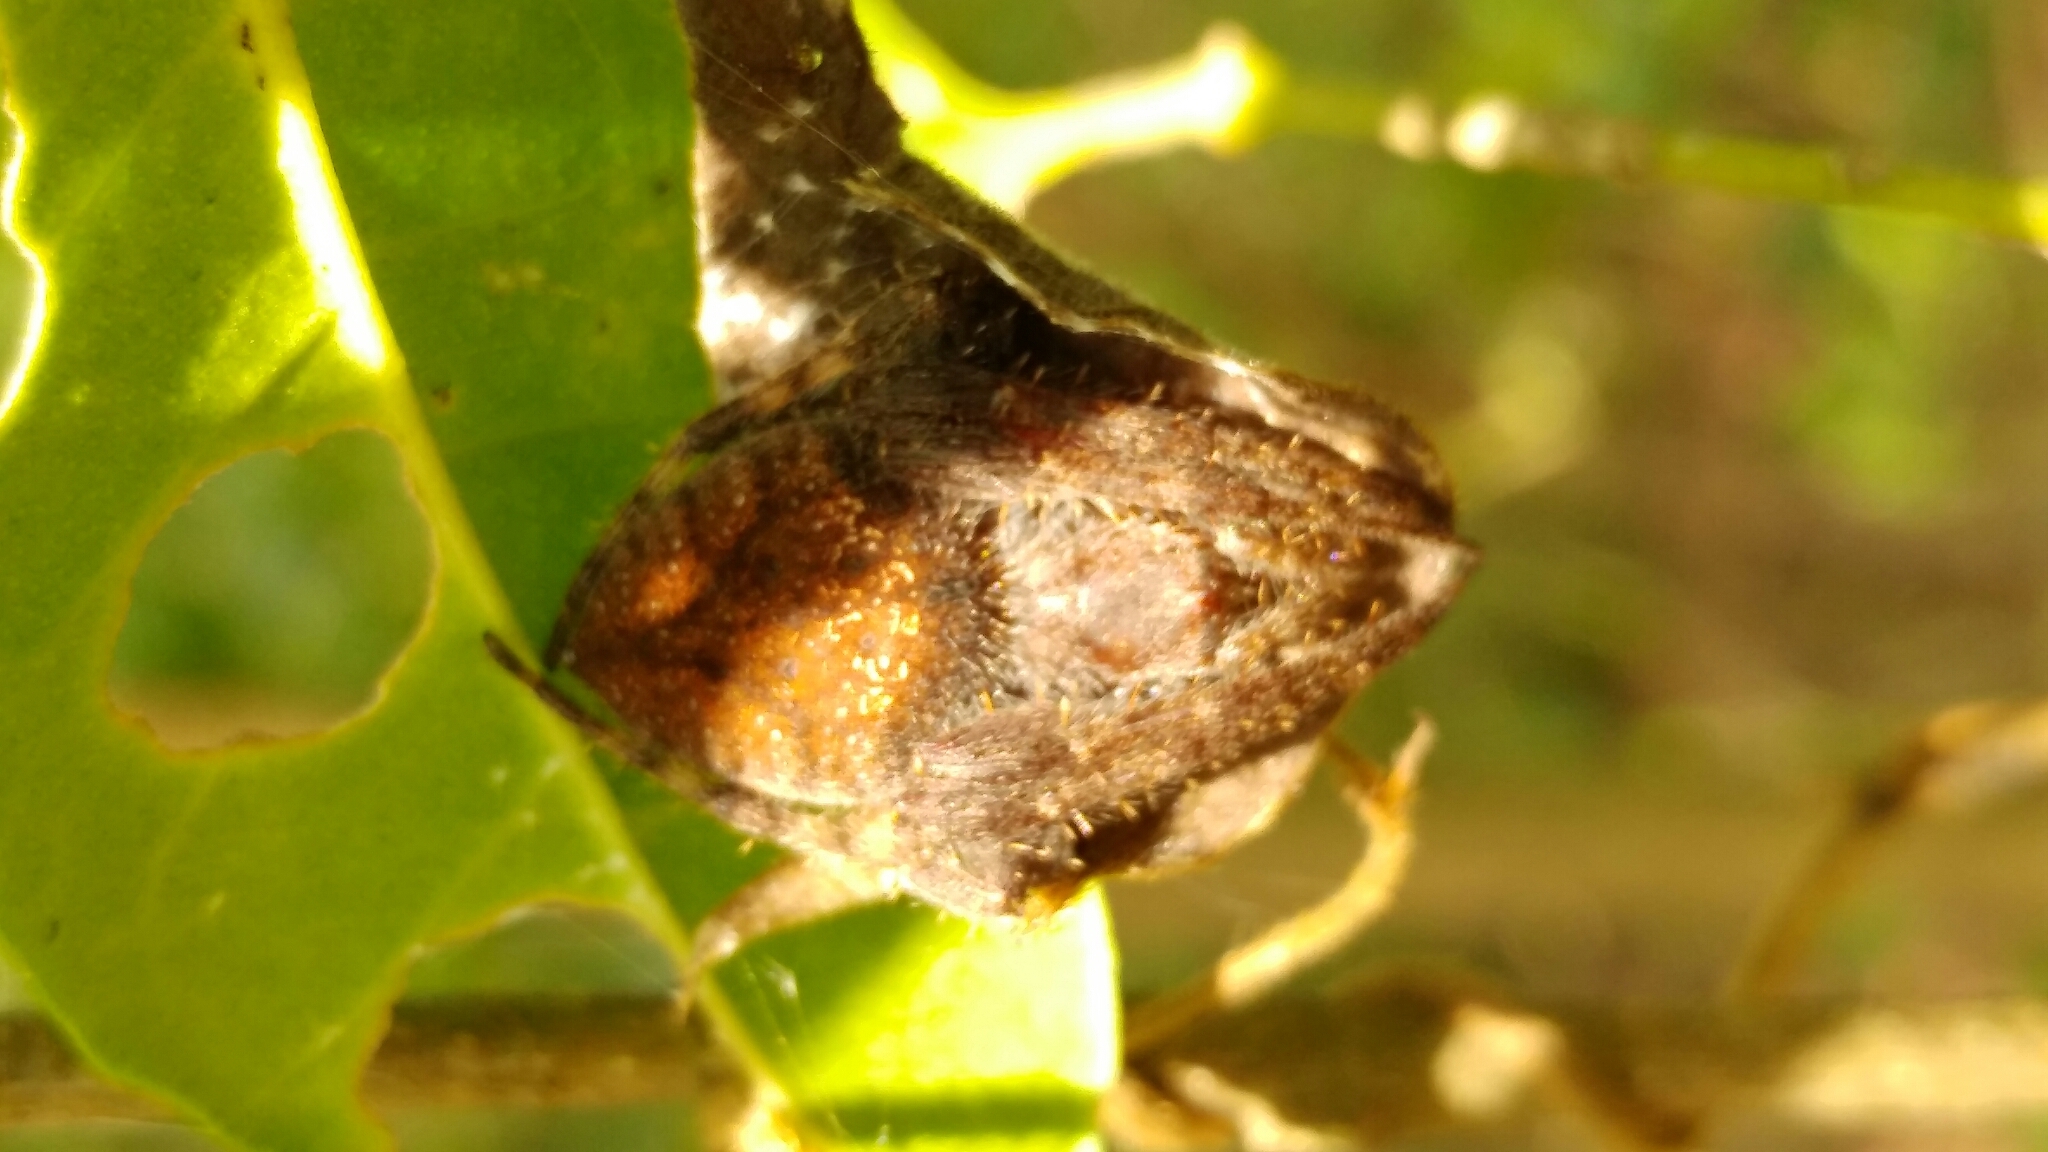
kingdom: Animalia
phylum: Arthropoda
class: Arachnida
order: Araneae
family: Araneidae
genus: Eriophora
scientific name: Eriophora edax
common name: Orb weavers
